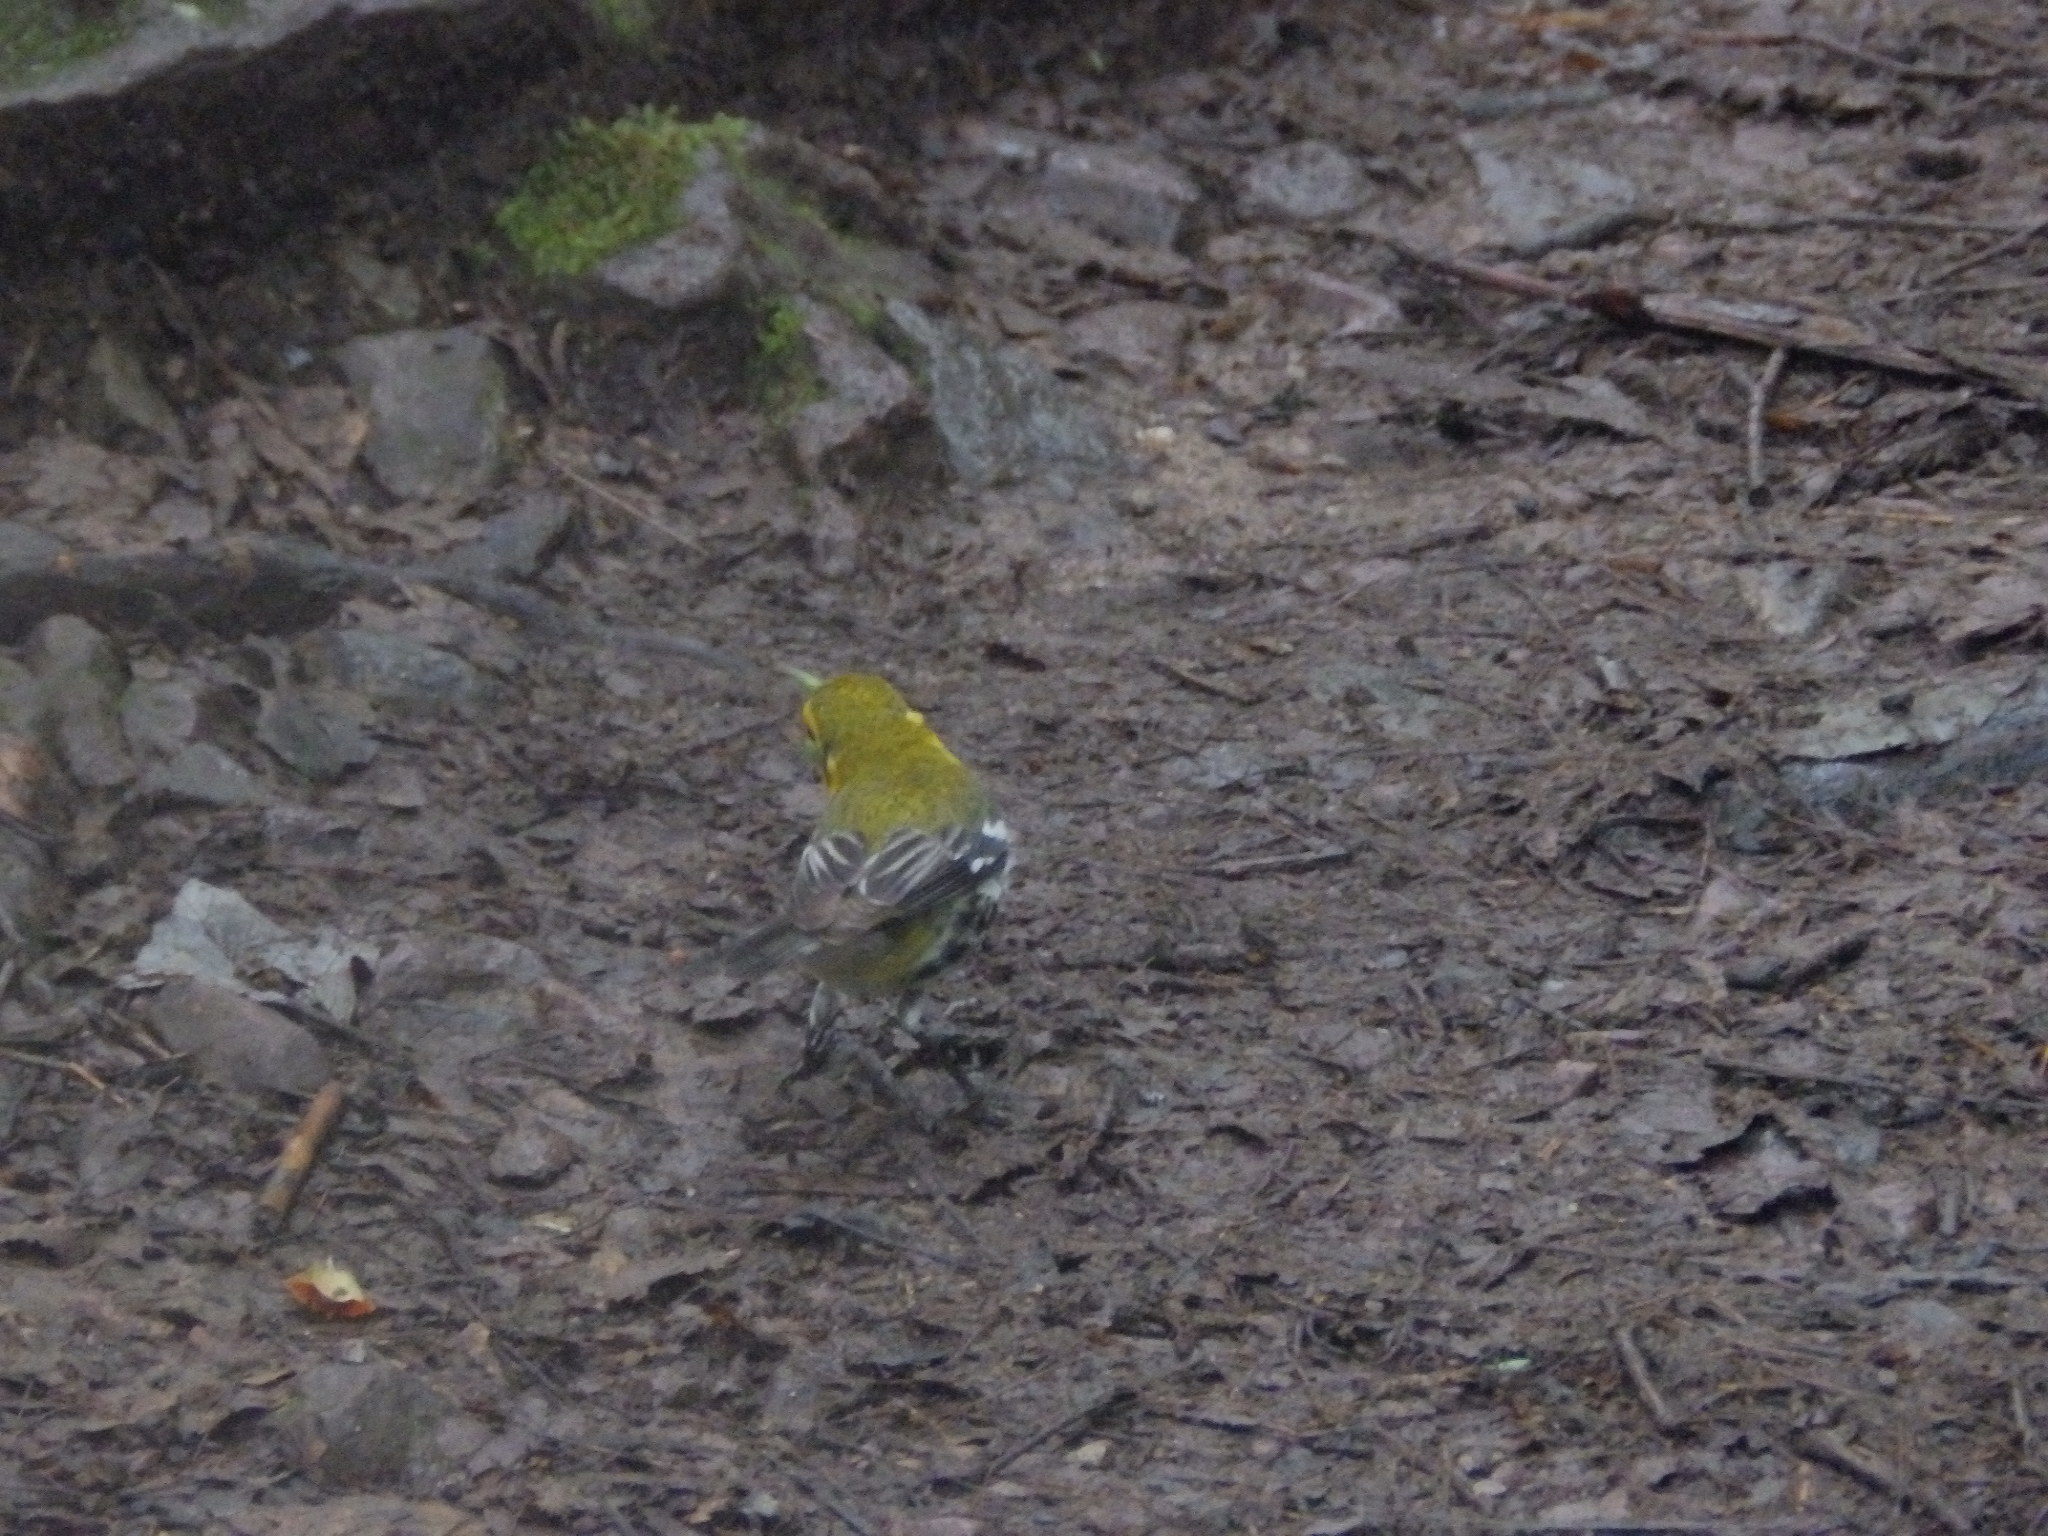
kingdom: Animalia
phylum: Chordata
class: Aves
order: Passeriformes
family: Parulidae
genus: Setophaga
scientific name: Setophaga virens
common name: Black-throated green warbler
